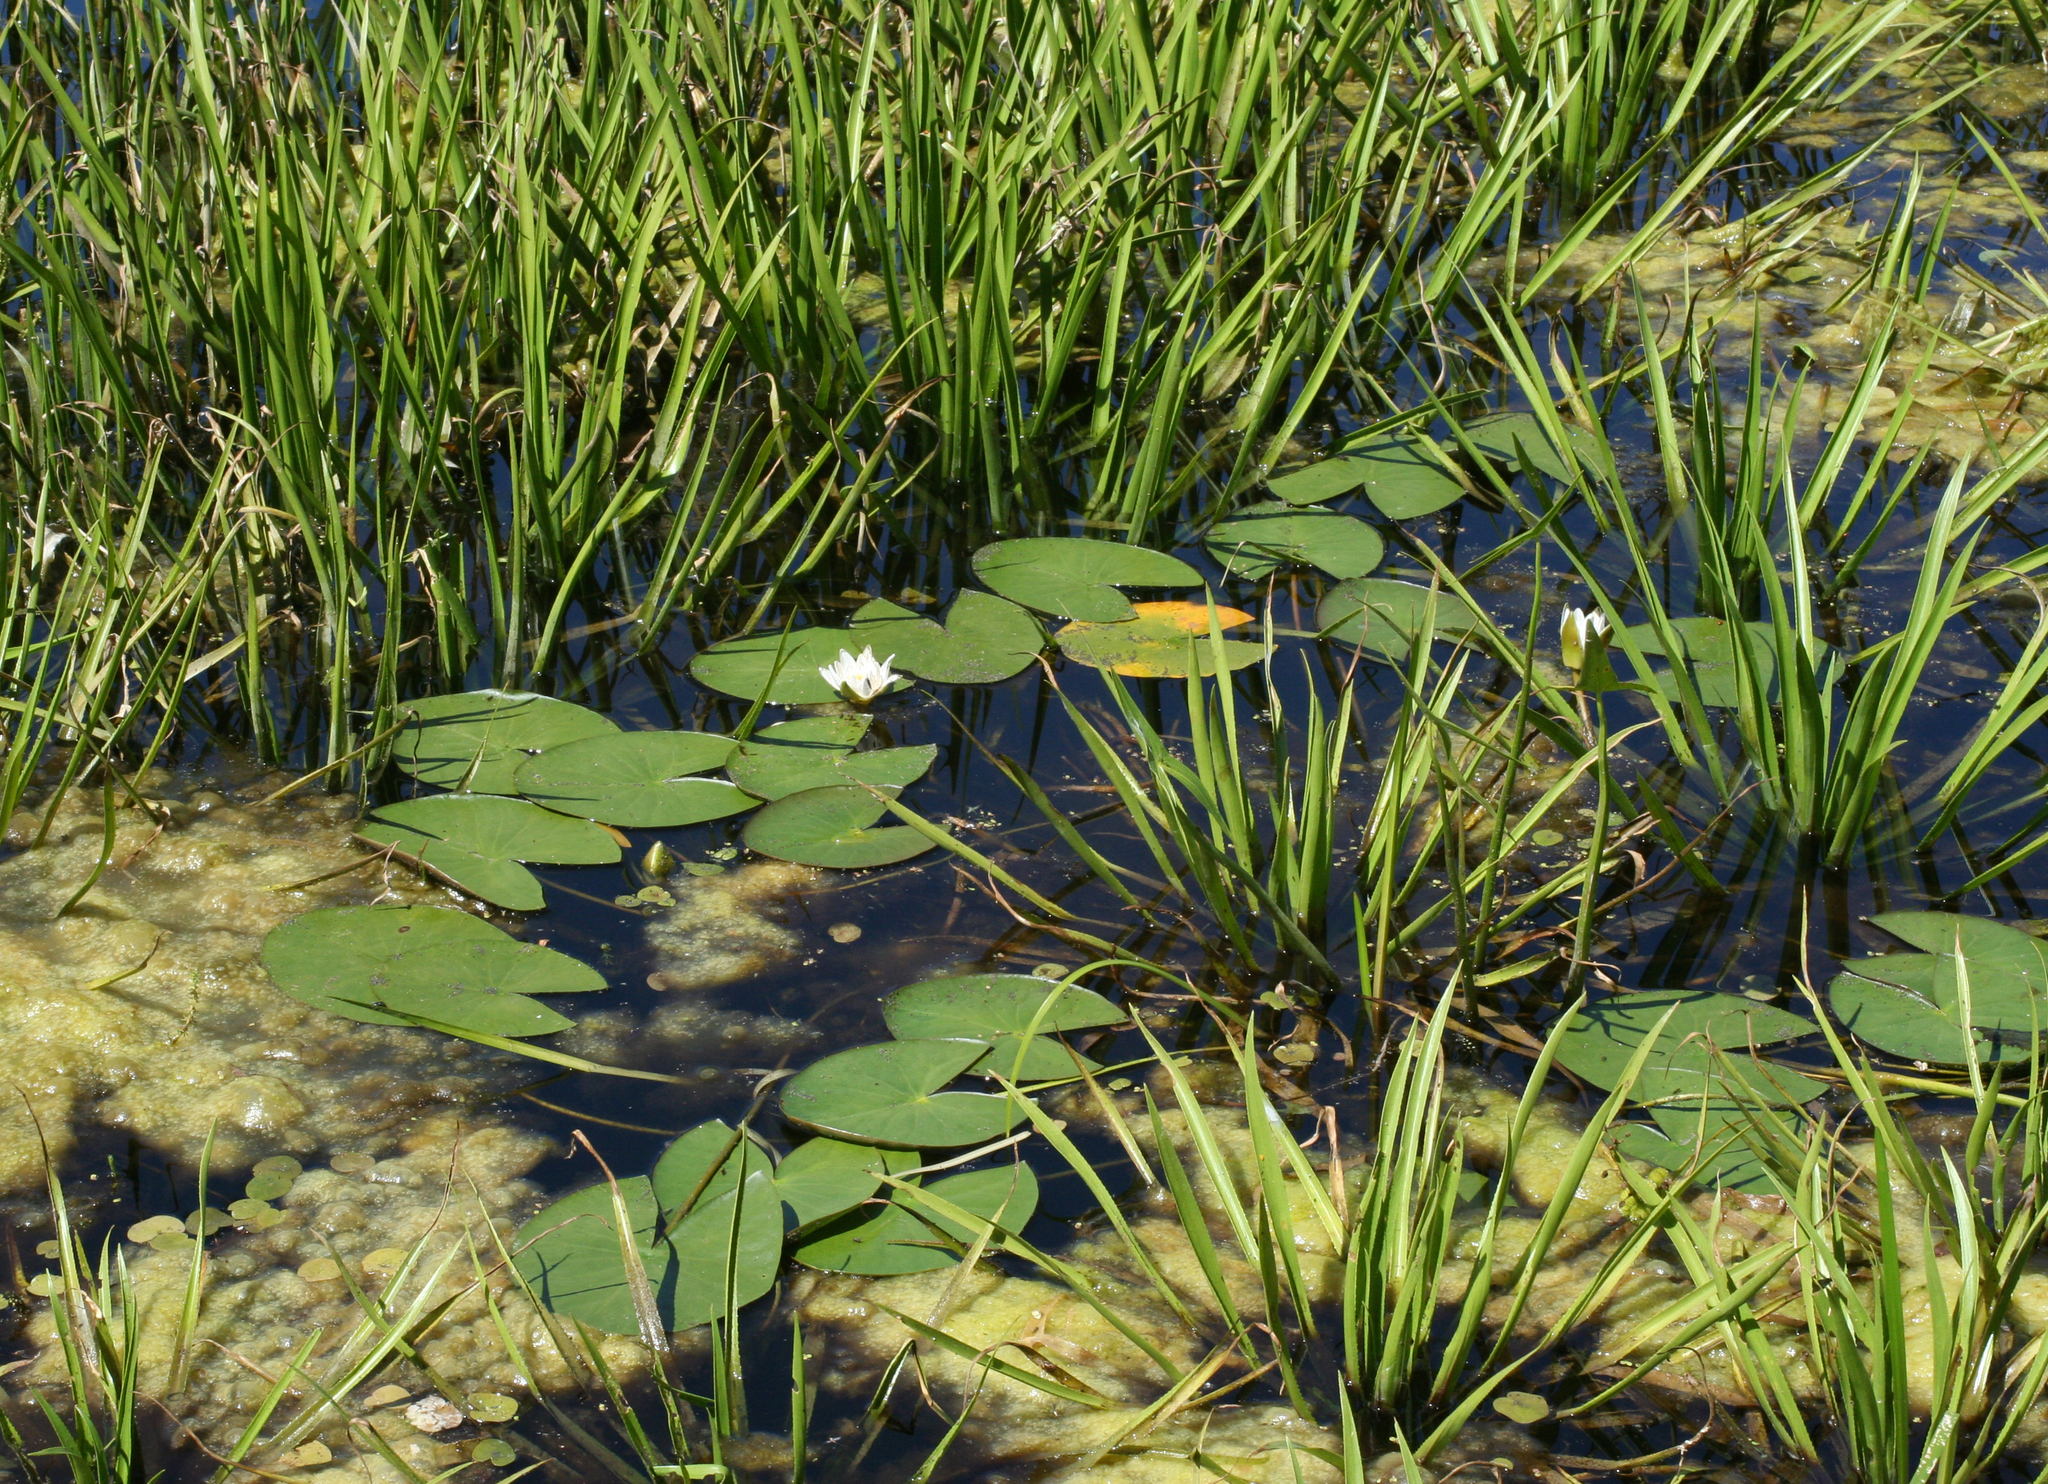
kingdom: Plantae
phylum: Tracheophyta
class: Magnoliopsida
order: Nymphaeales
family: Nymphaeaceae
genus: Nymphaea
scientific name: Nymphaea tetragona
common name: Pygmy water-lily
